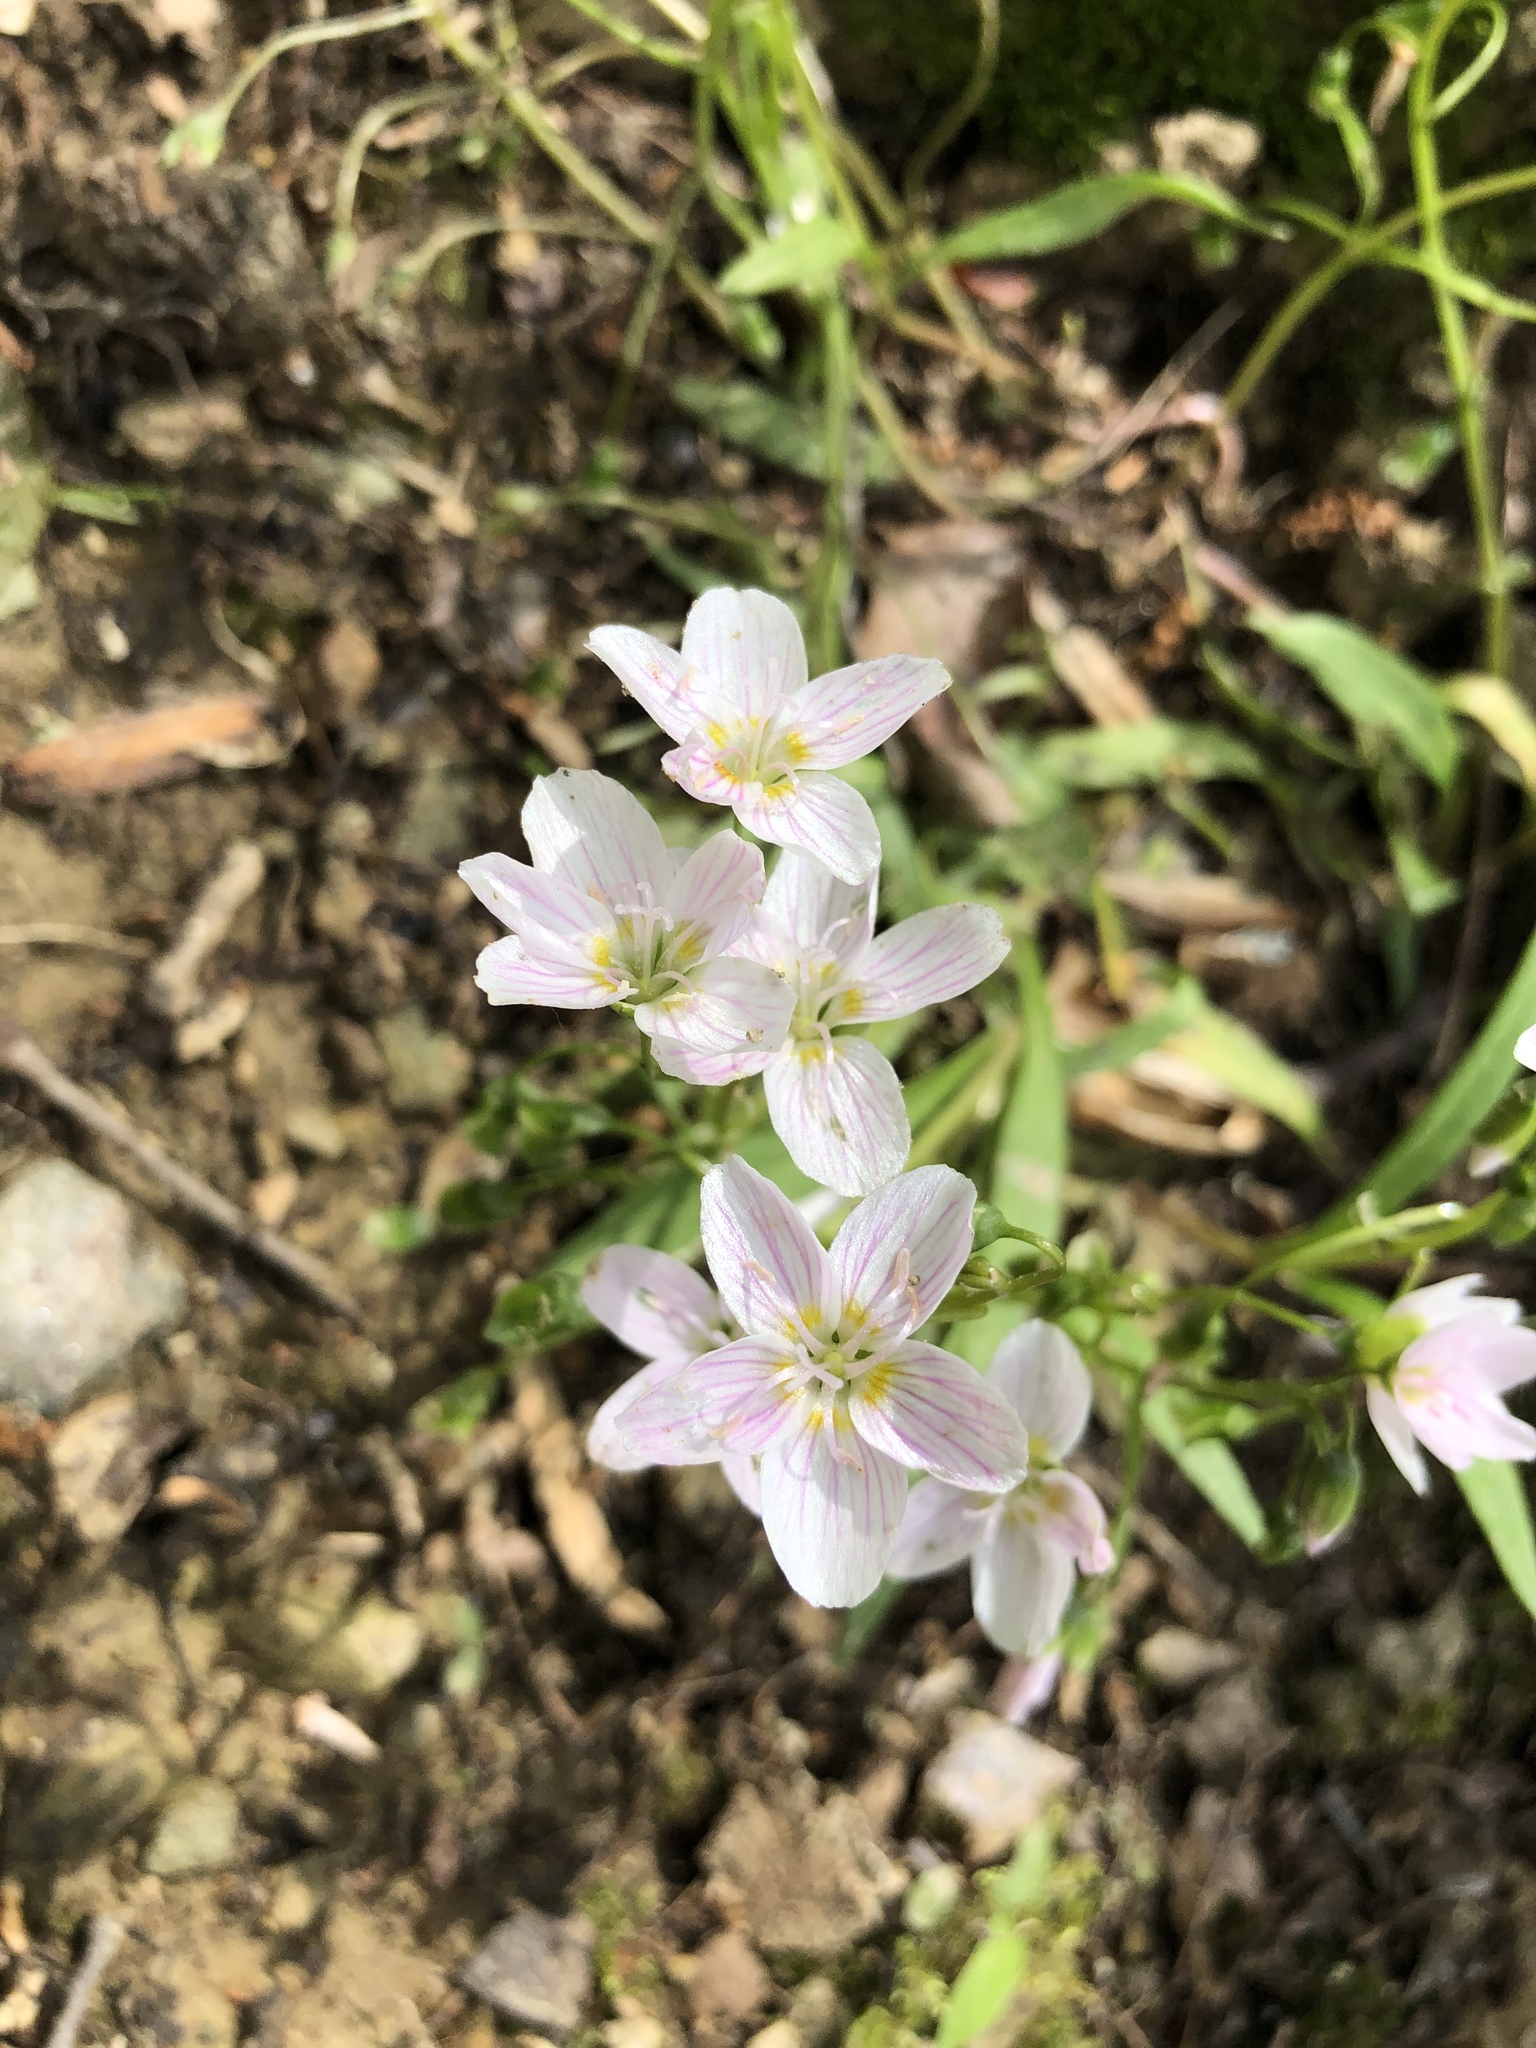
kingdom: Plantae
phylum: Tracheophyta
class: Magnoliopsida
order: Caryophyllales
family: Montiaceae
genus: Claytonia
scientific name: Claytonia virginica
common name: Virginia springbeauty
